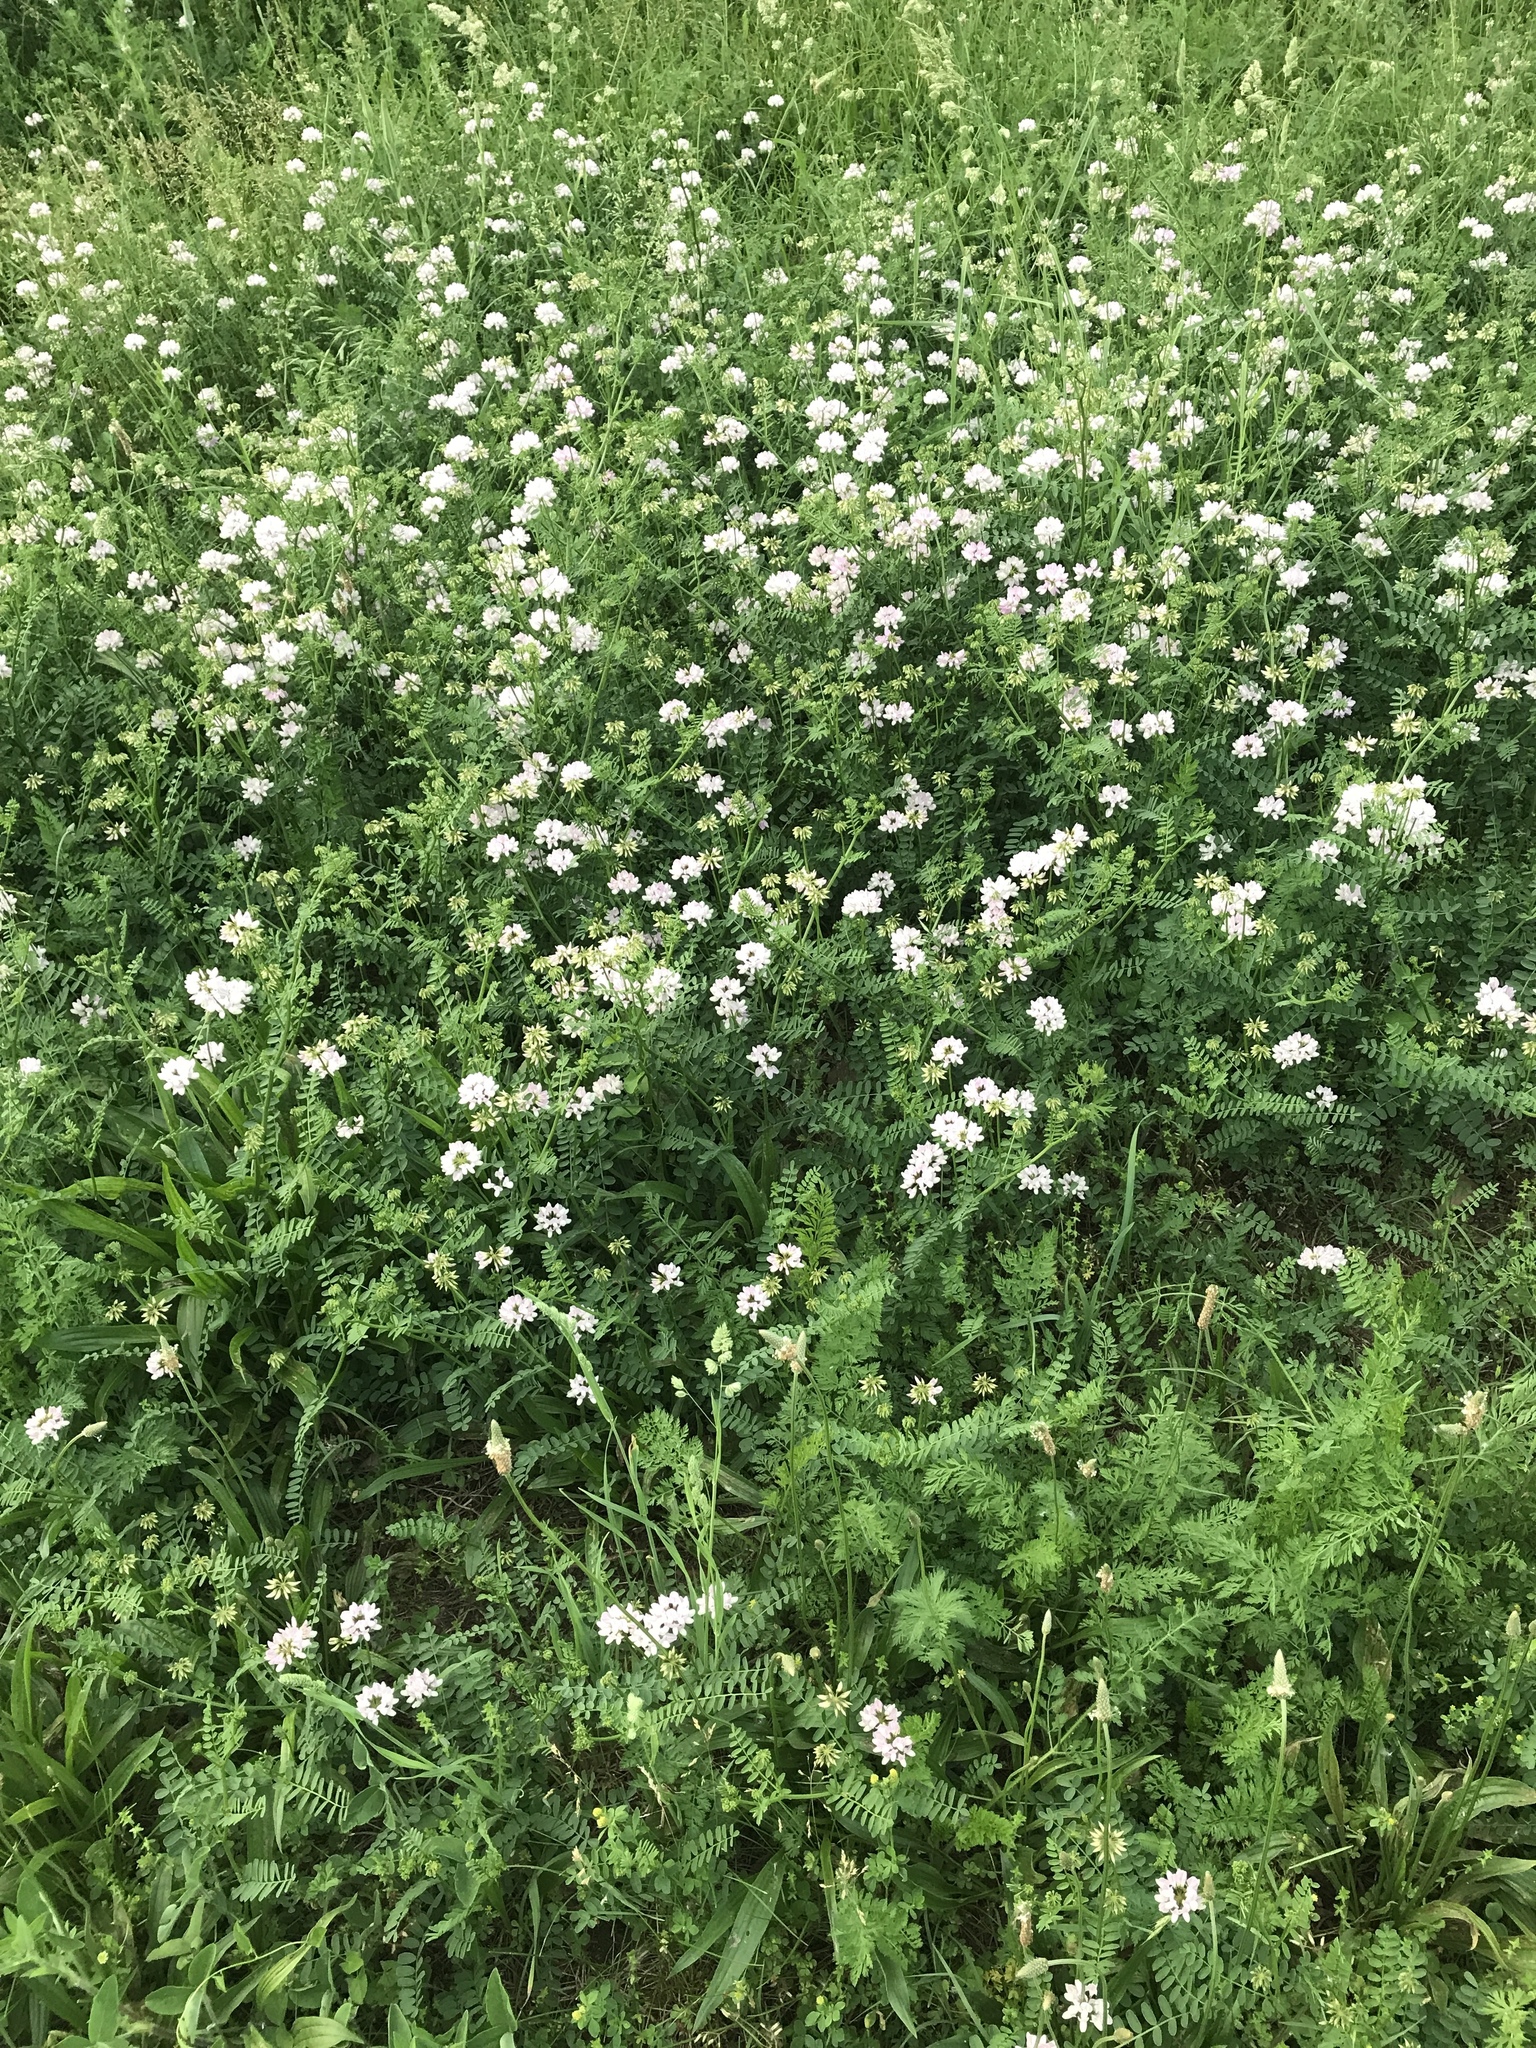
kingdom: Plantae
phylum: Tracheophyta
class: Magnoliopsida
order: Fabales
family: Fabaceae
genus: Coronilla
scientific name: Coronilla varia
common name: Crownvetch
